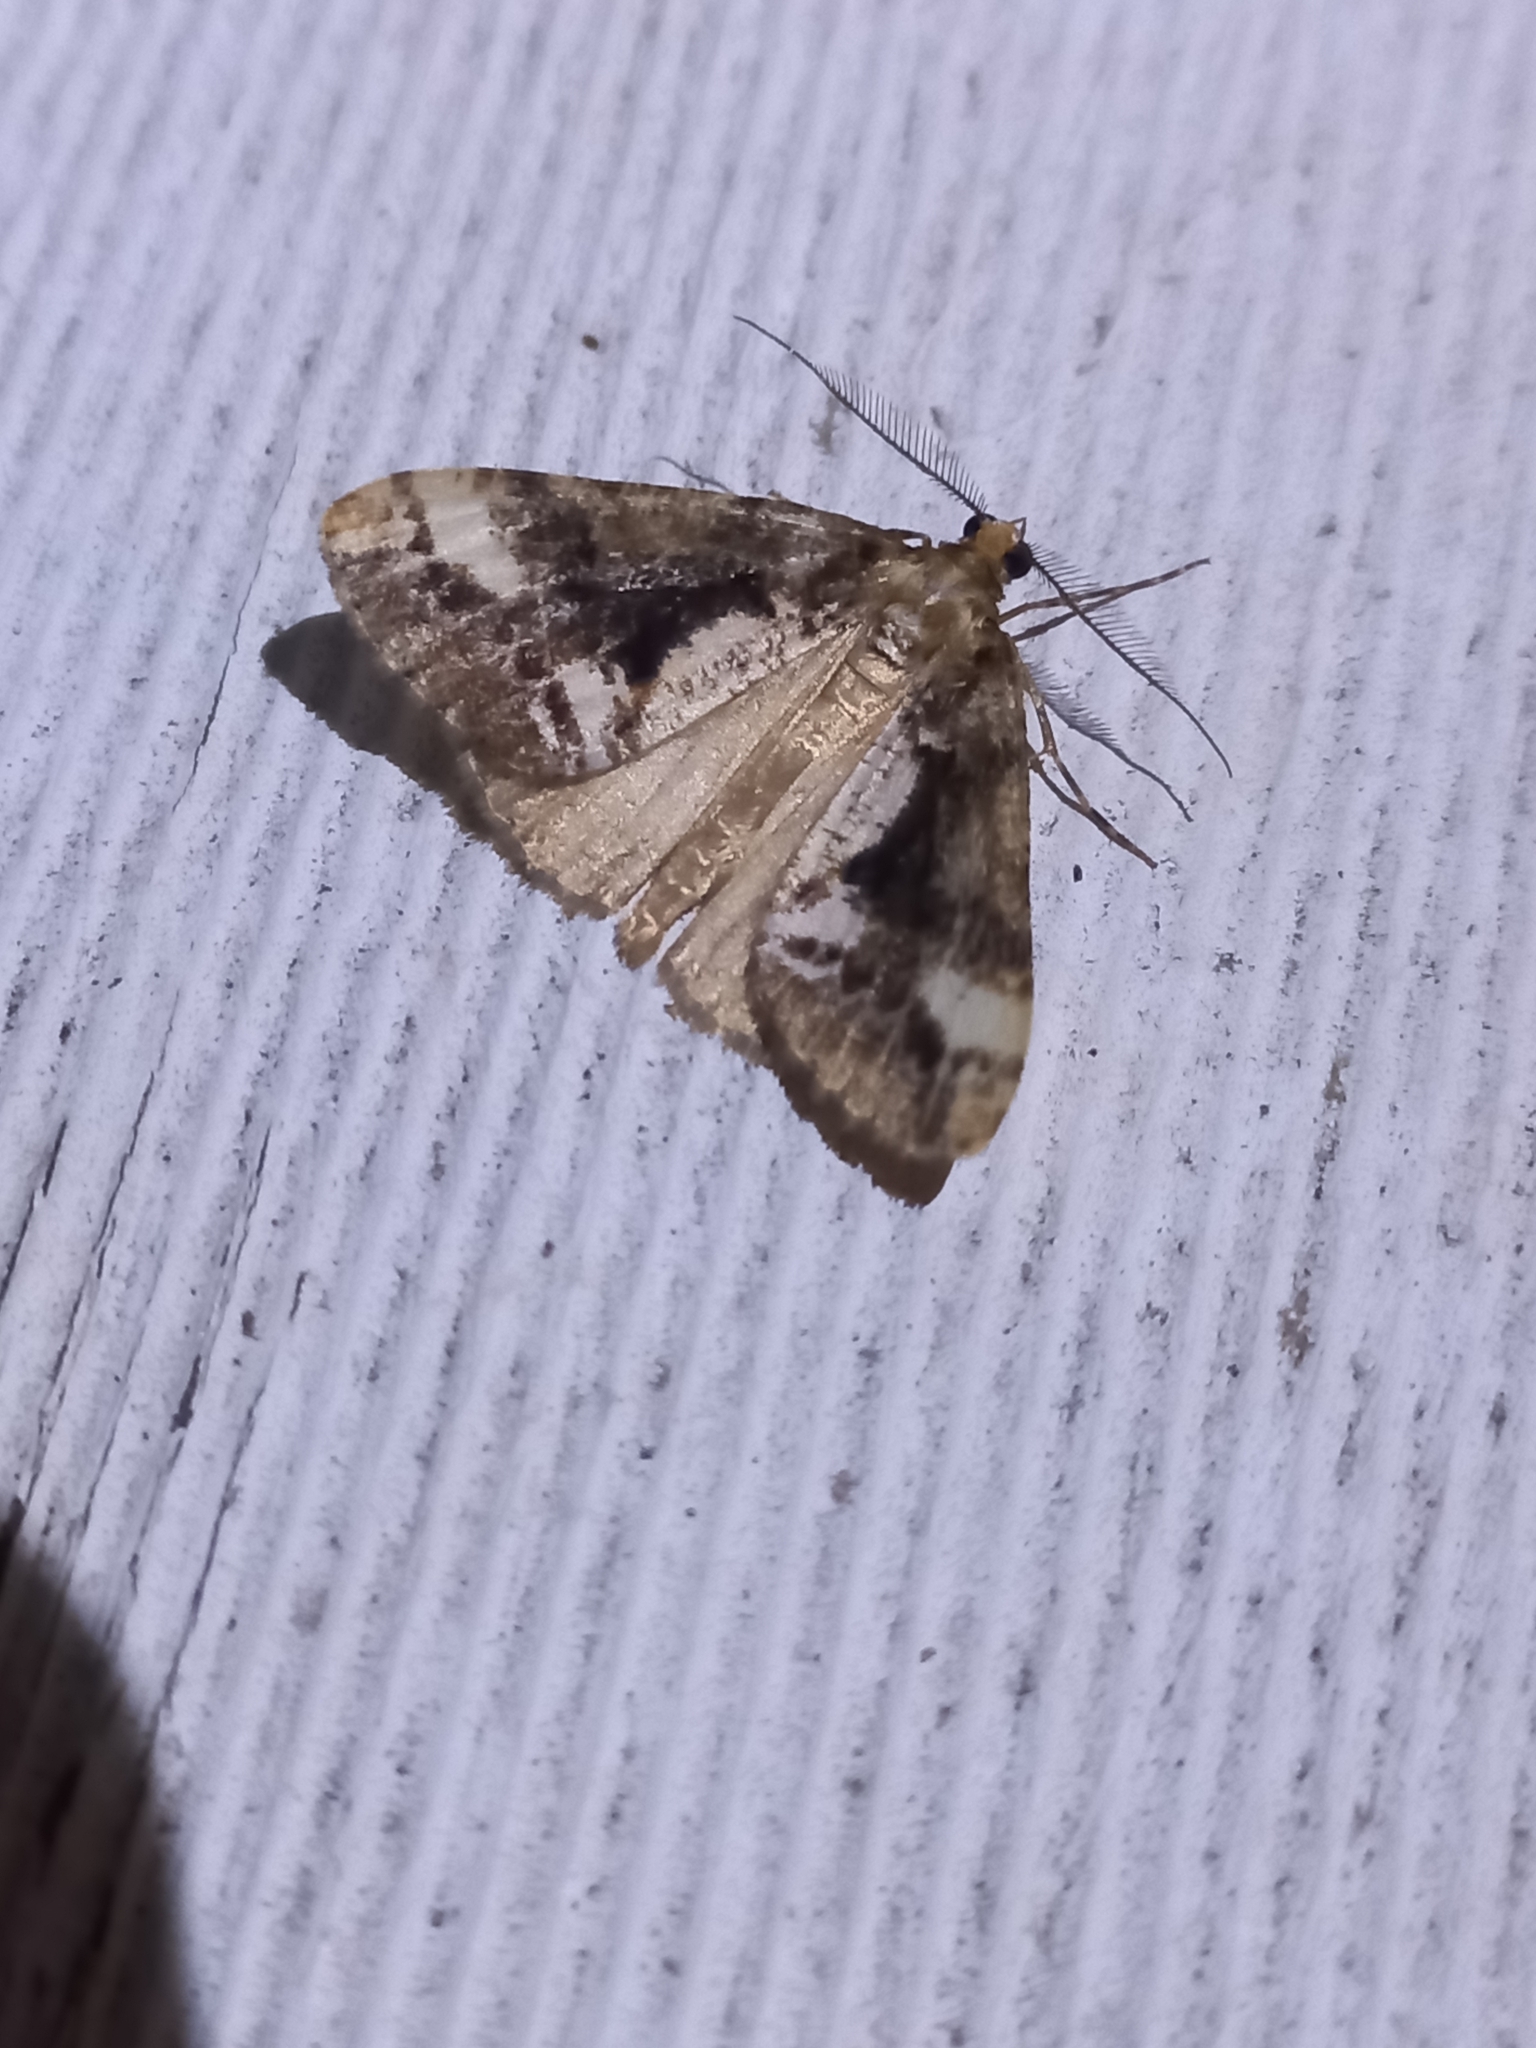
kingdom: Animalia
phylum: Arthropoda
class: Insecta
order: Lepidoptera
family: Geometridae
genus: Pseudocoremia
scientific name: Pseudocoremia leucelaea
